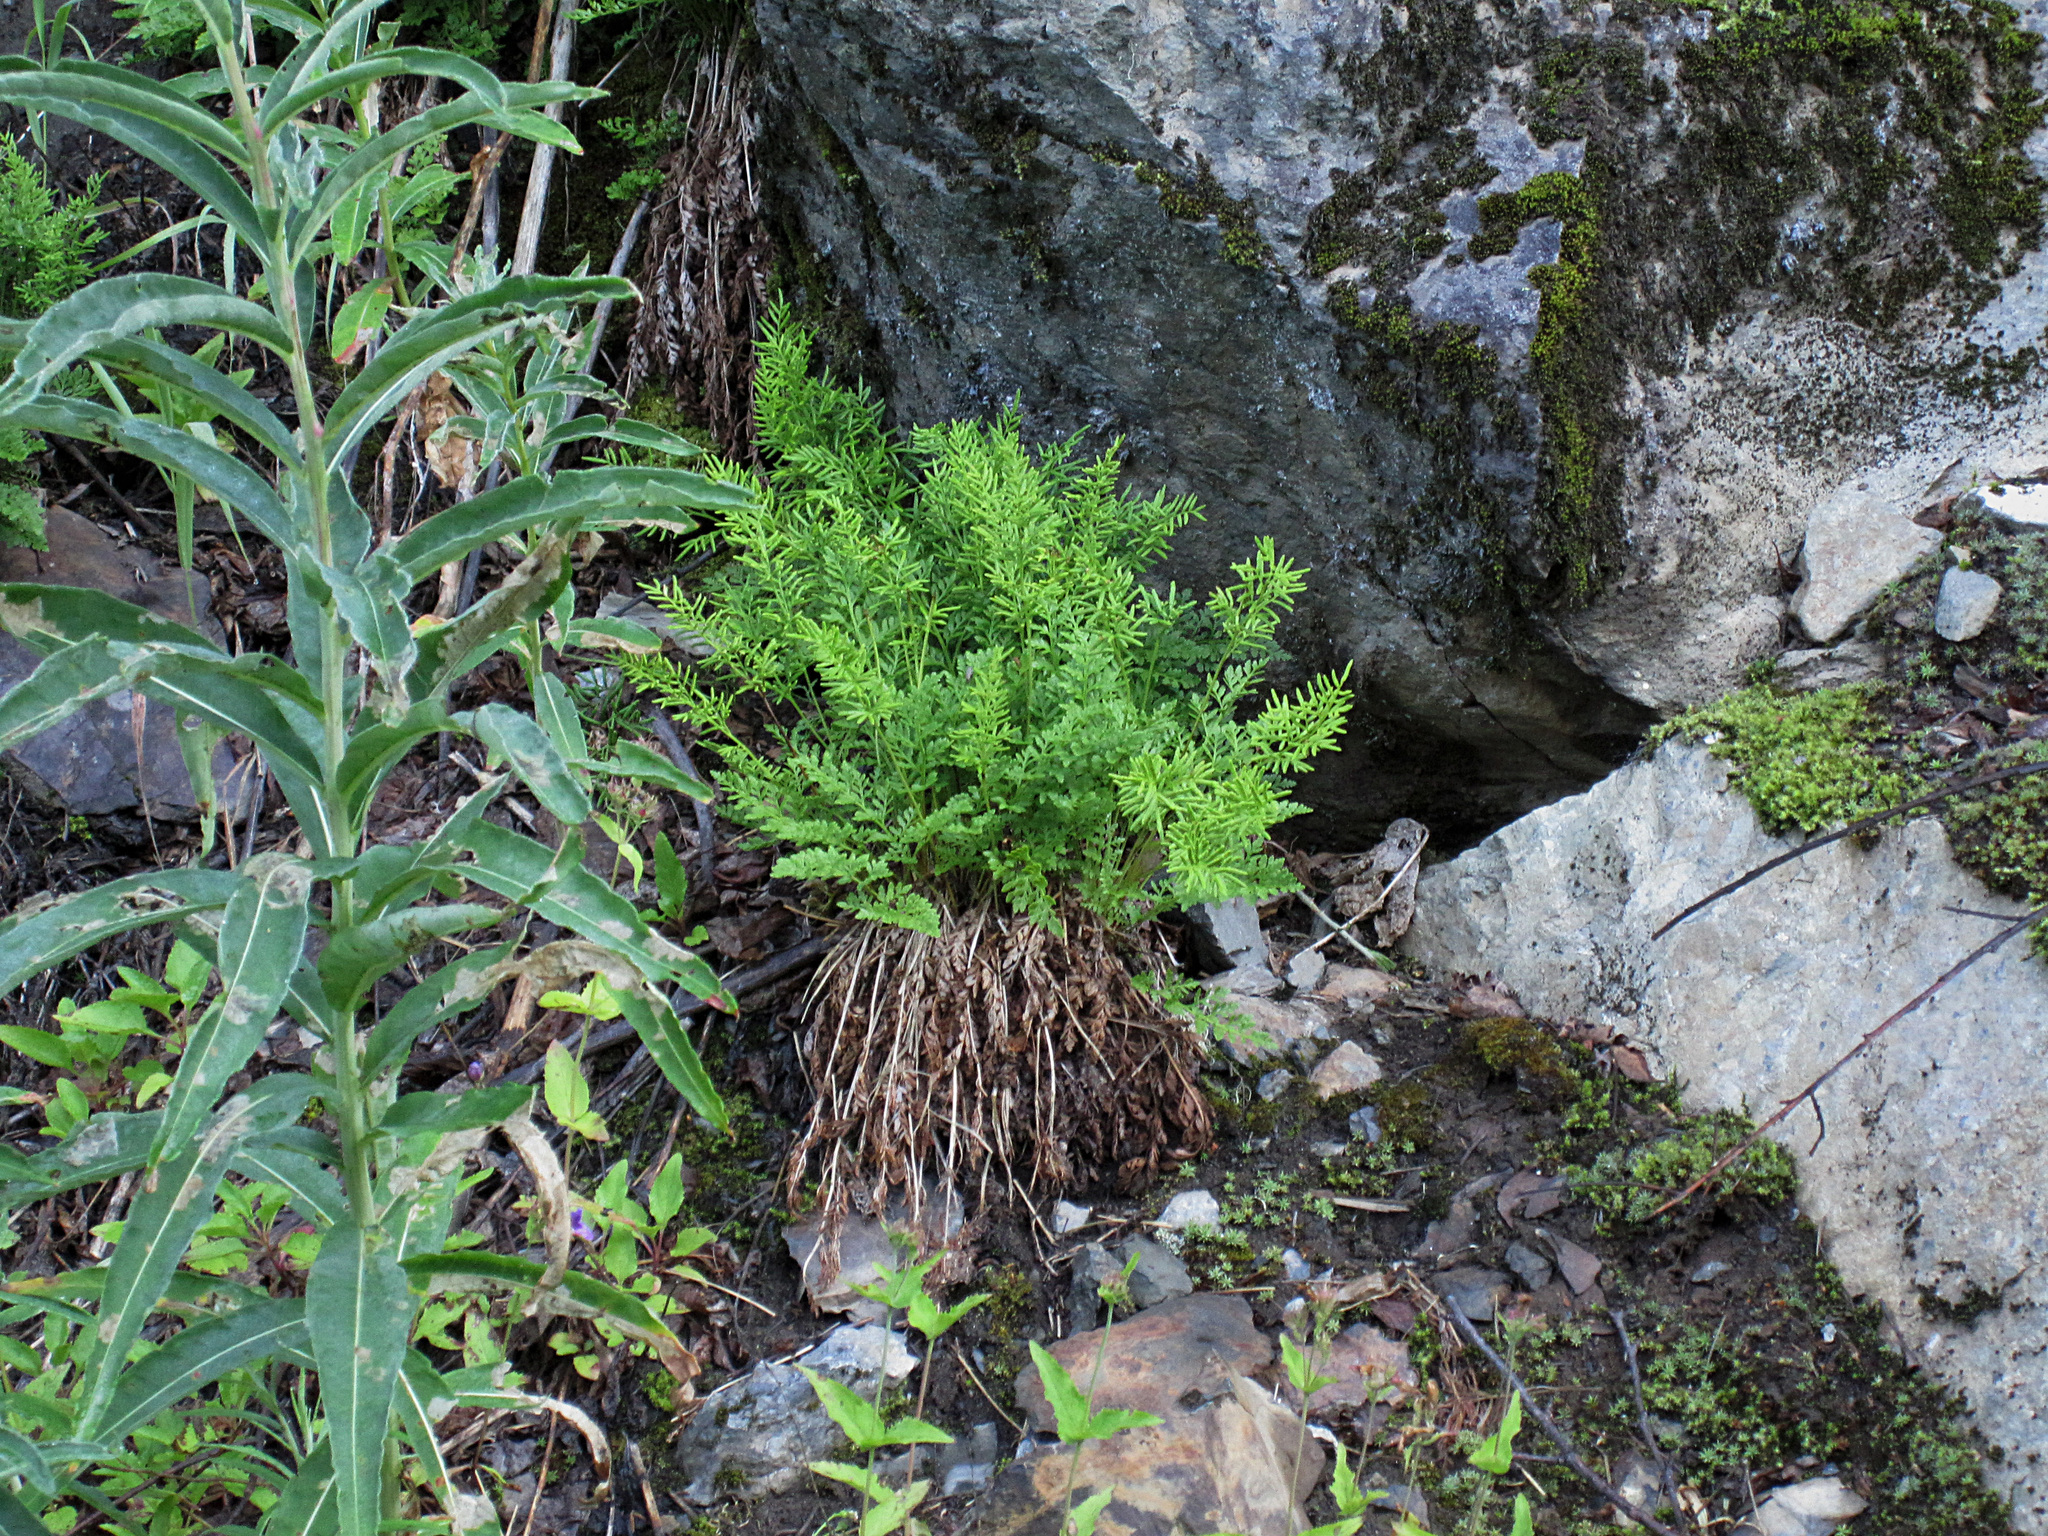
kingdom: Plantae
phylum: Tracheophyta
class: Polypodiopsida
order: Polypodiales
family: Pteridaceae
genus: Cryptogramma
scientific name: Cryptogramma acrostichoides
